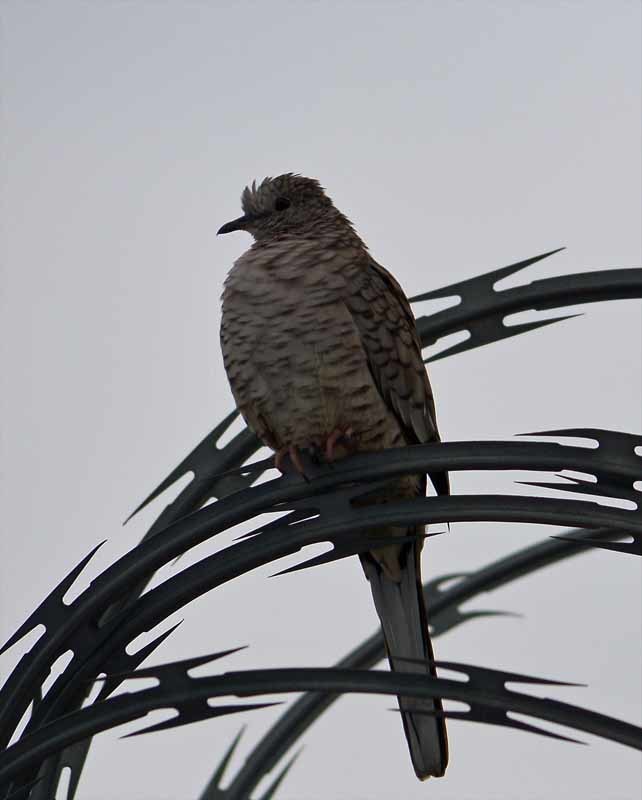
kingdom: Animalia
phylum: Chordata
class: Aves
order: Columbiformes
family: Columbidae
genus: Columbina
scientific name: Columbina inca
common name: Inca dove
